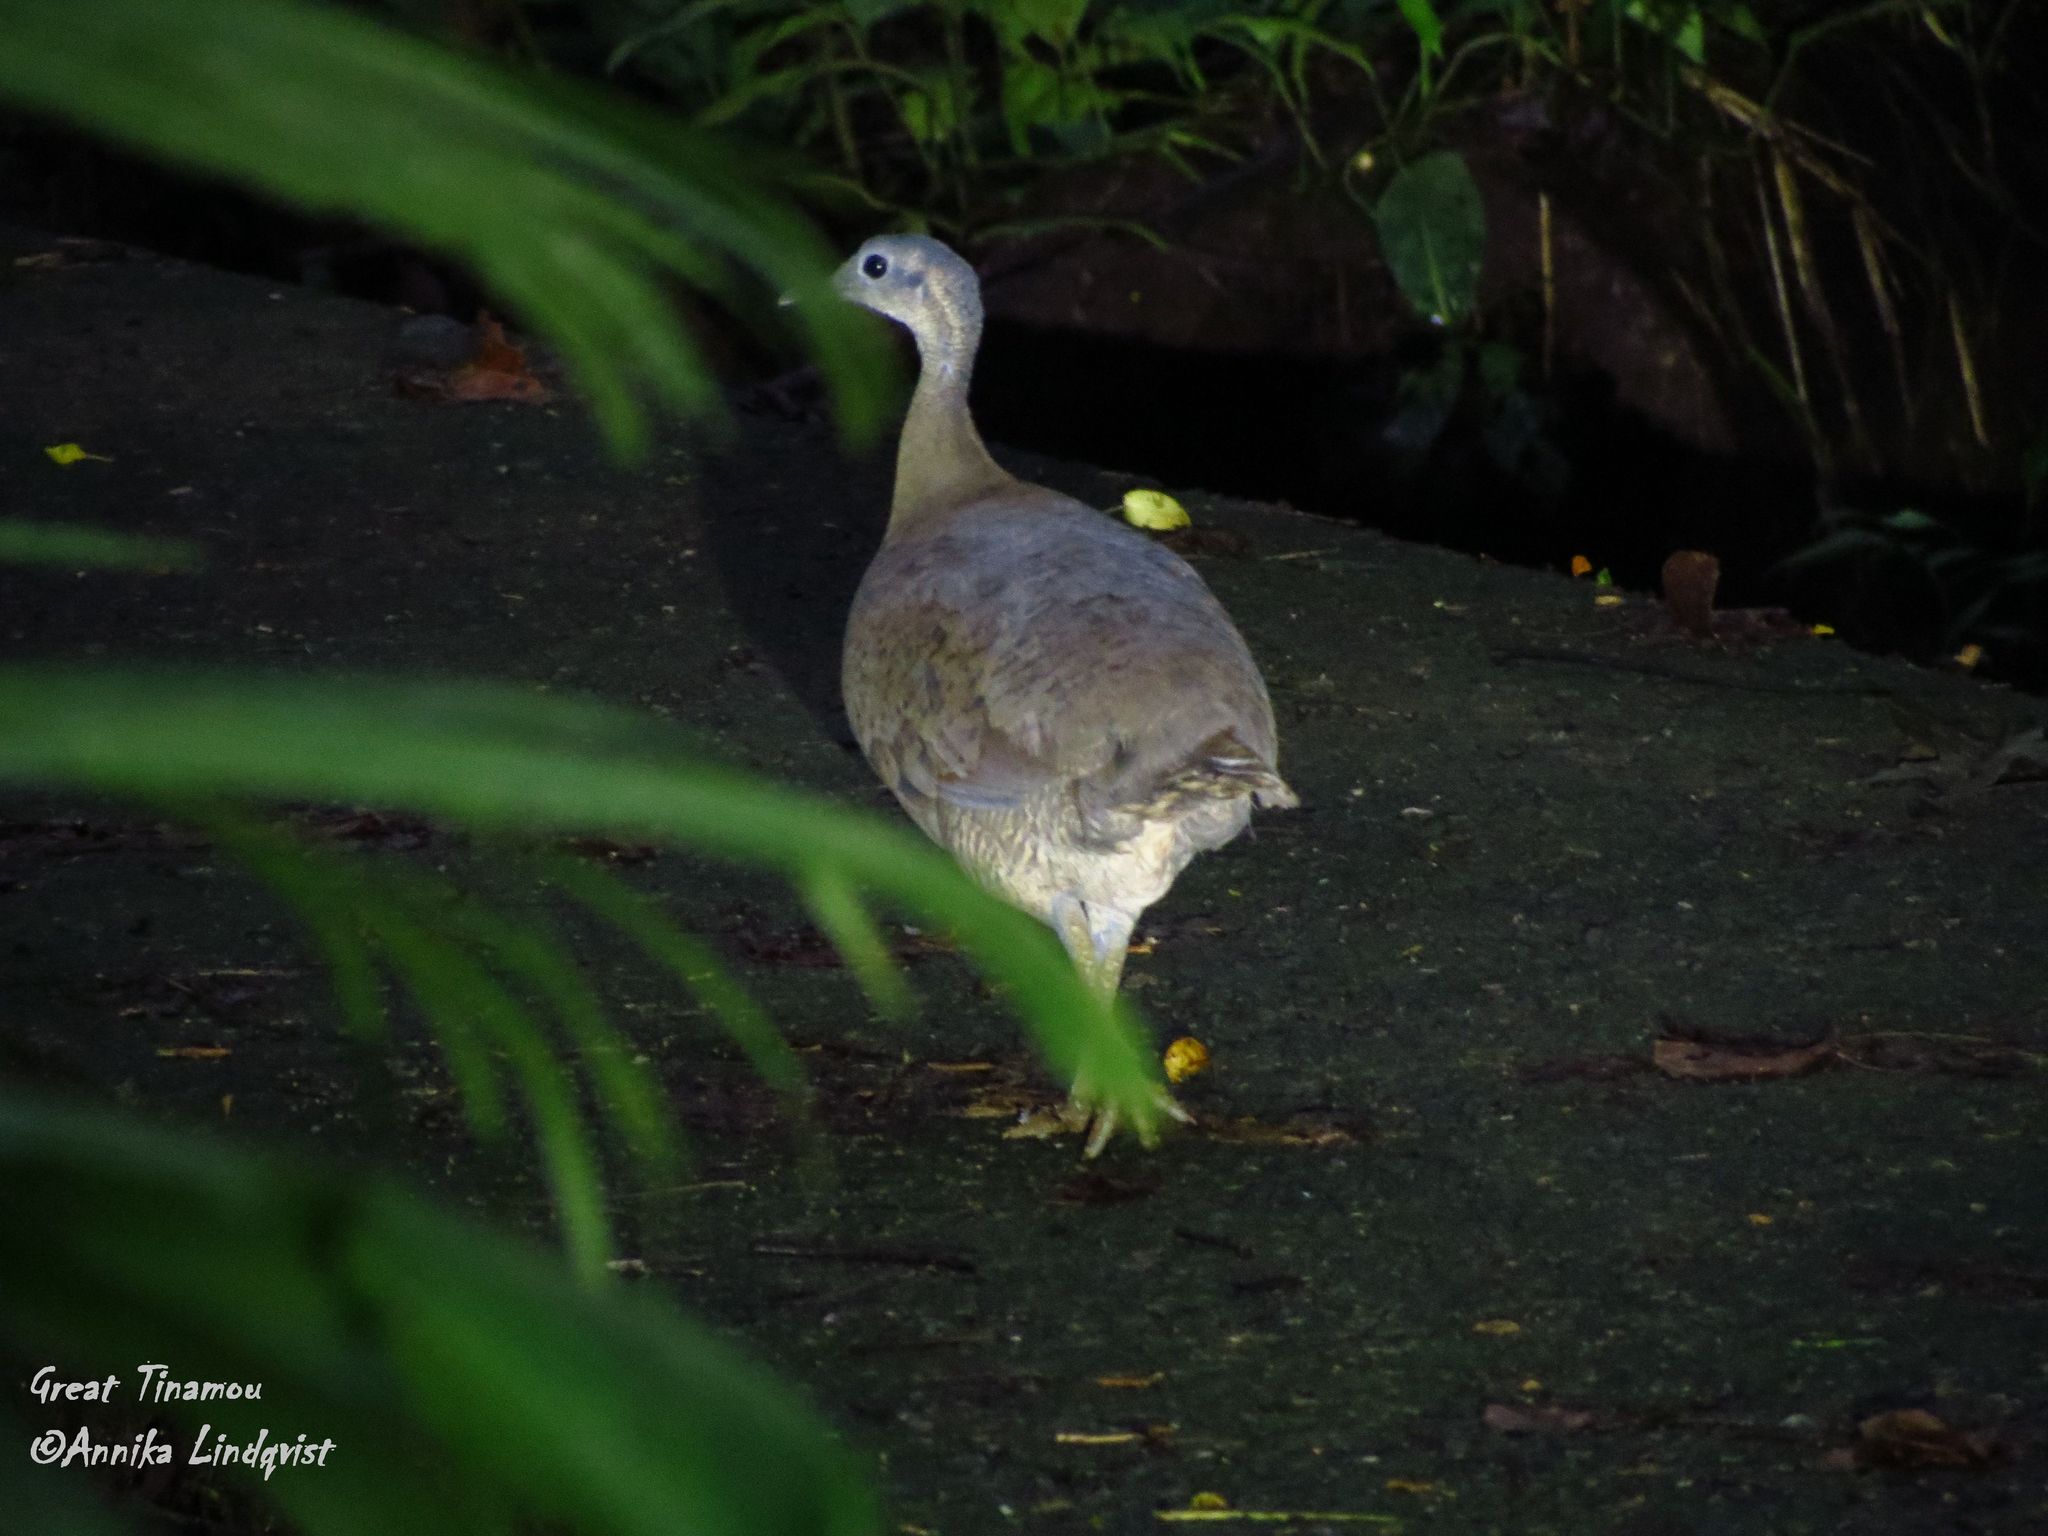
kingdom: Animalia
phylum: Chordata
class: Aves
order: Tinamiformes
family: Tinamidae
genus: Tinamus
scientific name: Tinamus major
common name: Great tinamou
